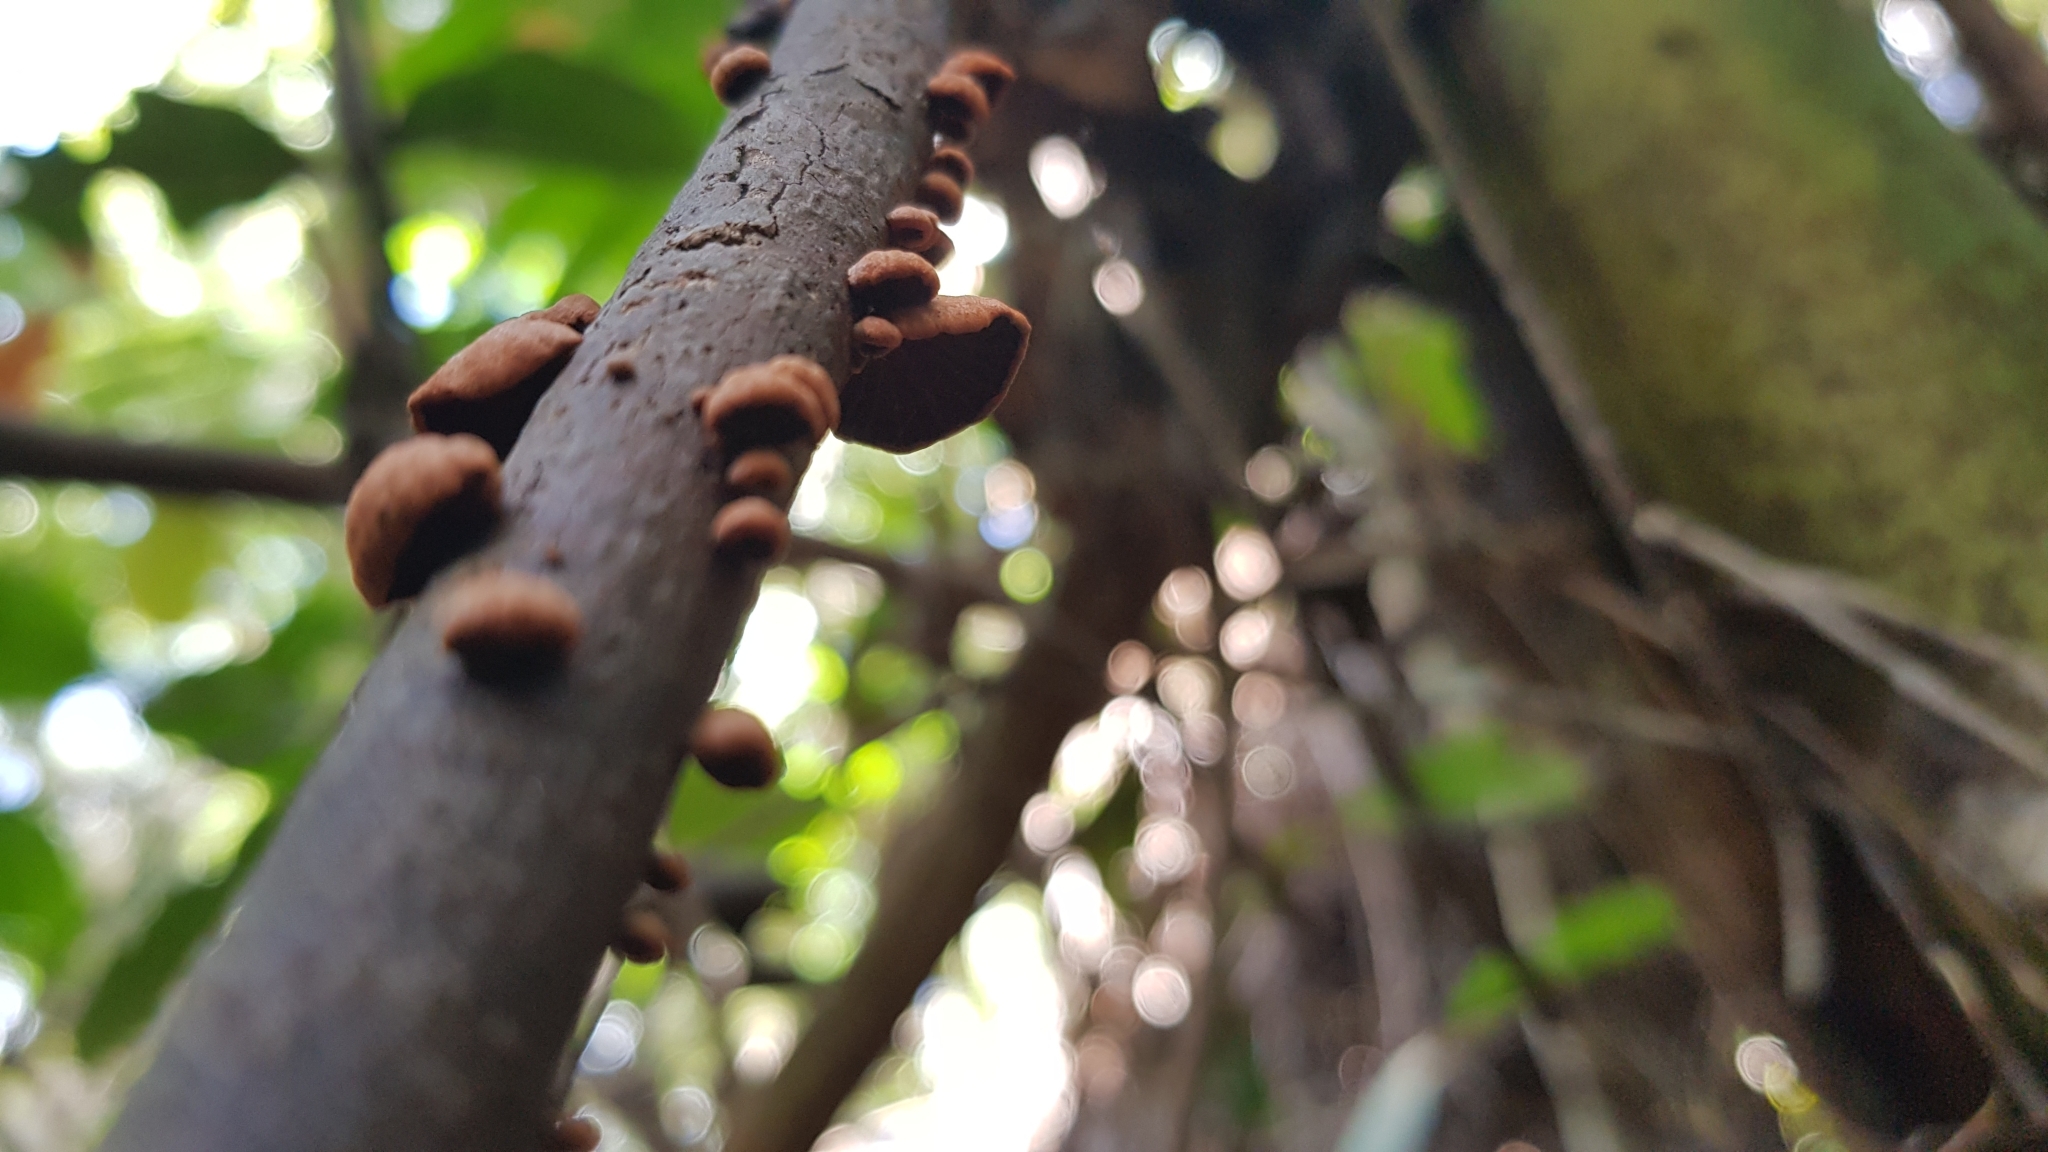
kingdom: Fungi
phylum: Basidiomycota
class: Agaricomycetes
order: Agaricales
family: Omphalotaceae
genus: Anthracophyllum
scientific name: Anthracophyllum archeri
